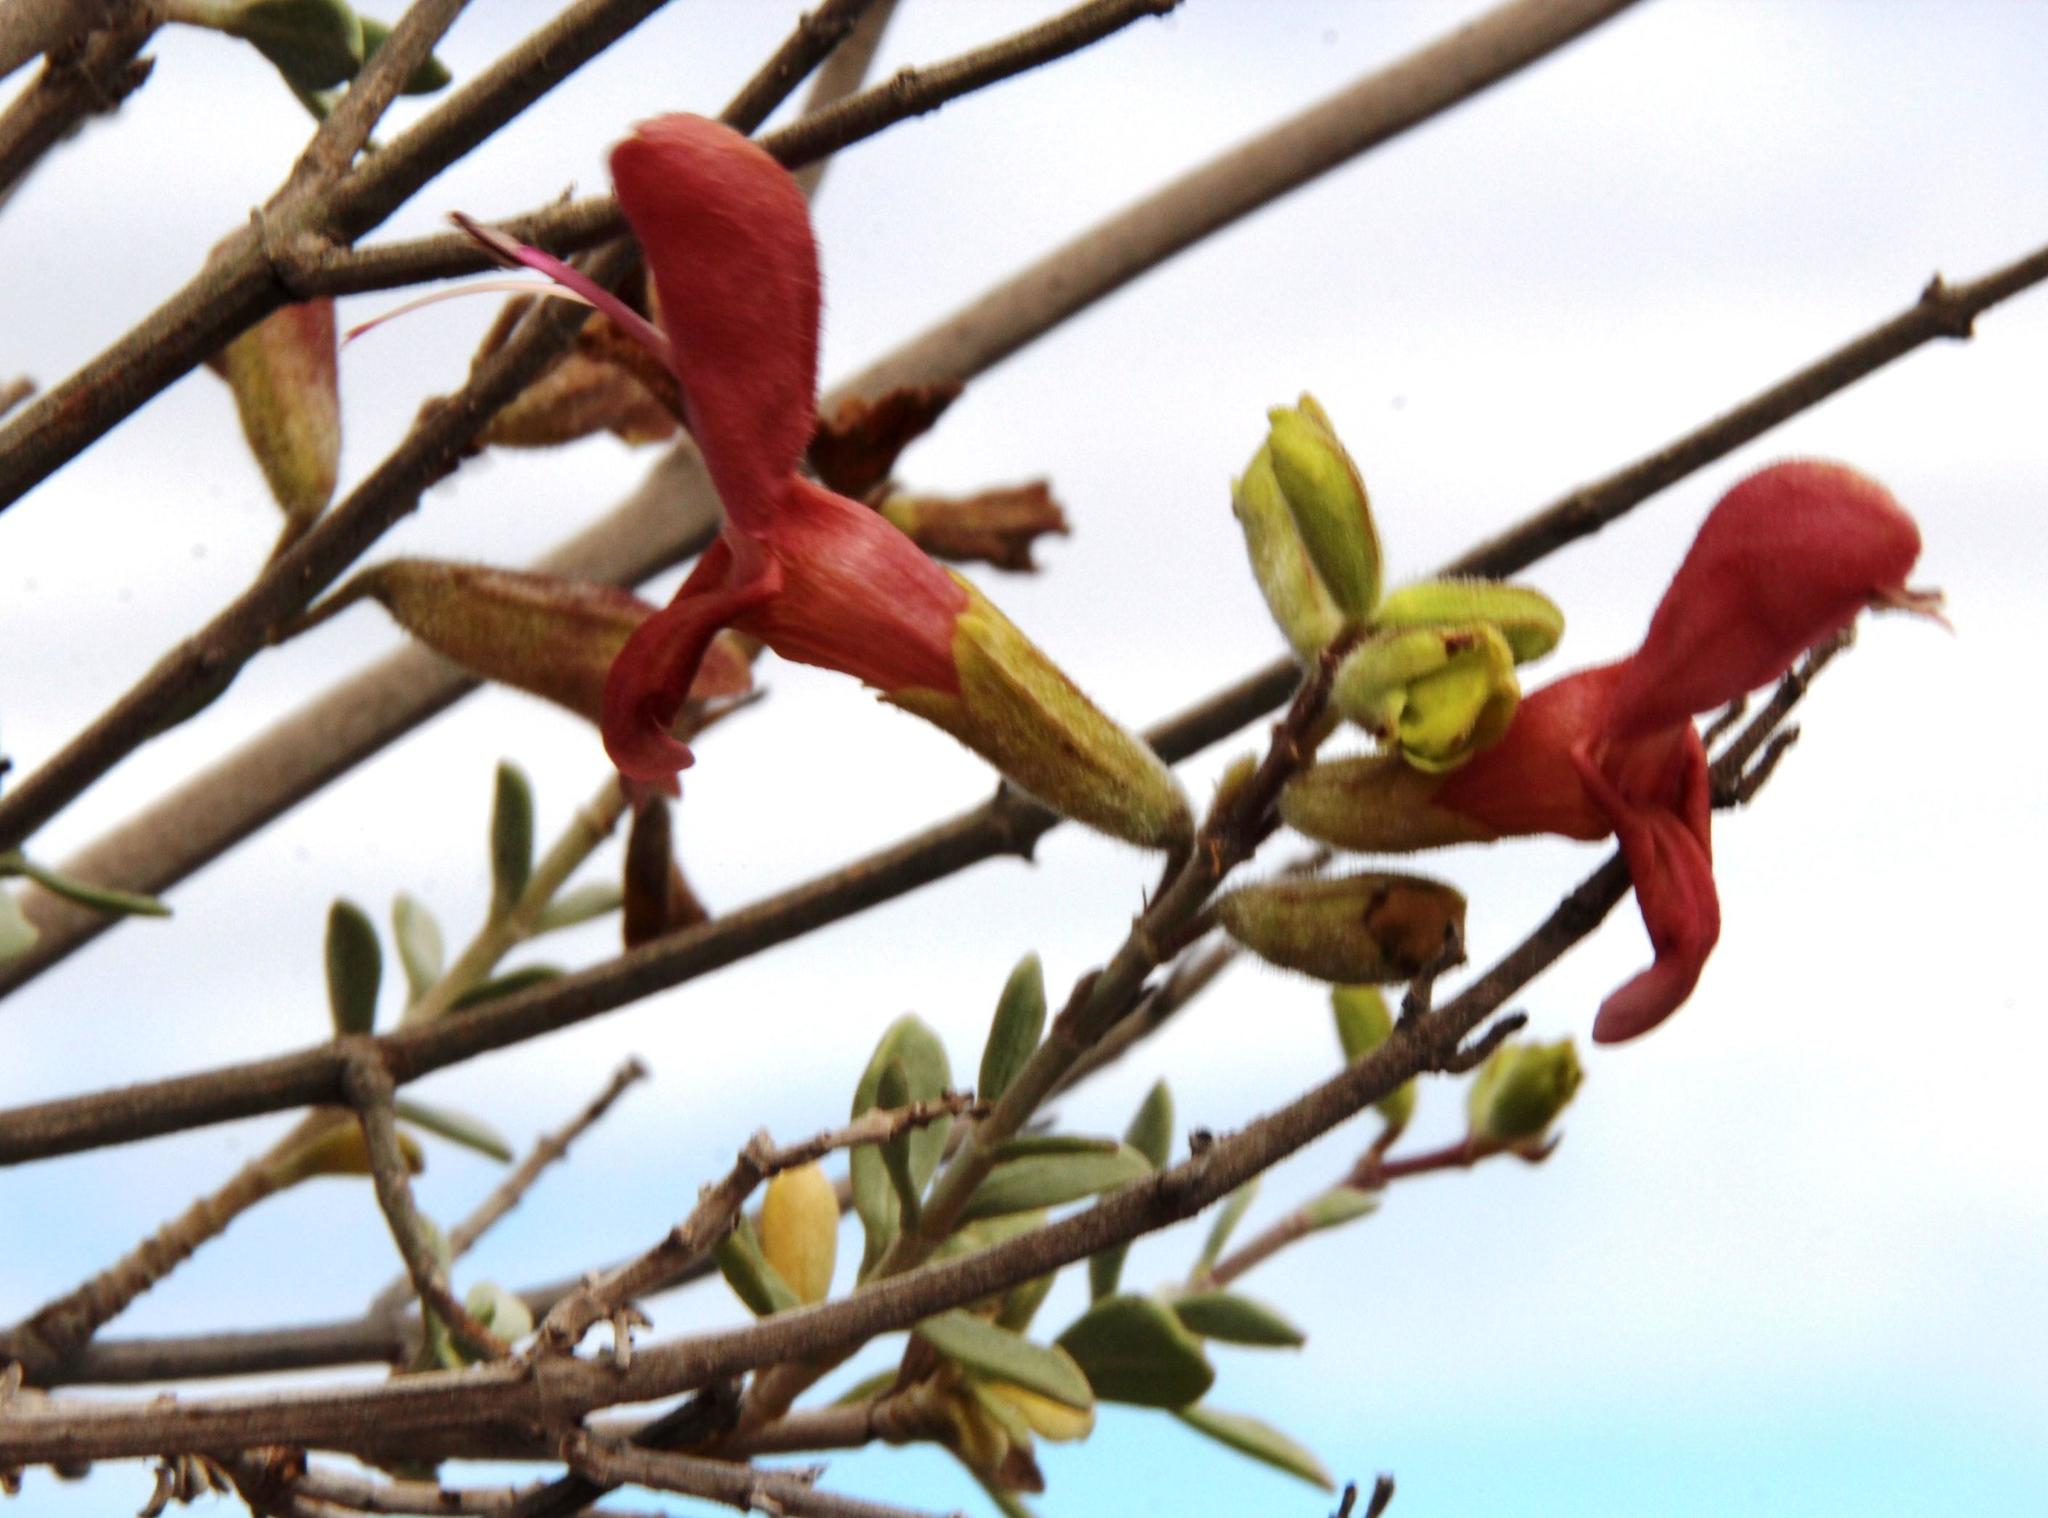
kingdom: Plantae
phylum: Tracheophyta
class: Magnoliopsida
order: Lamiales
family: Lamiaceae
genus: Salvia
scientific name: Salvia lanceolata
